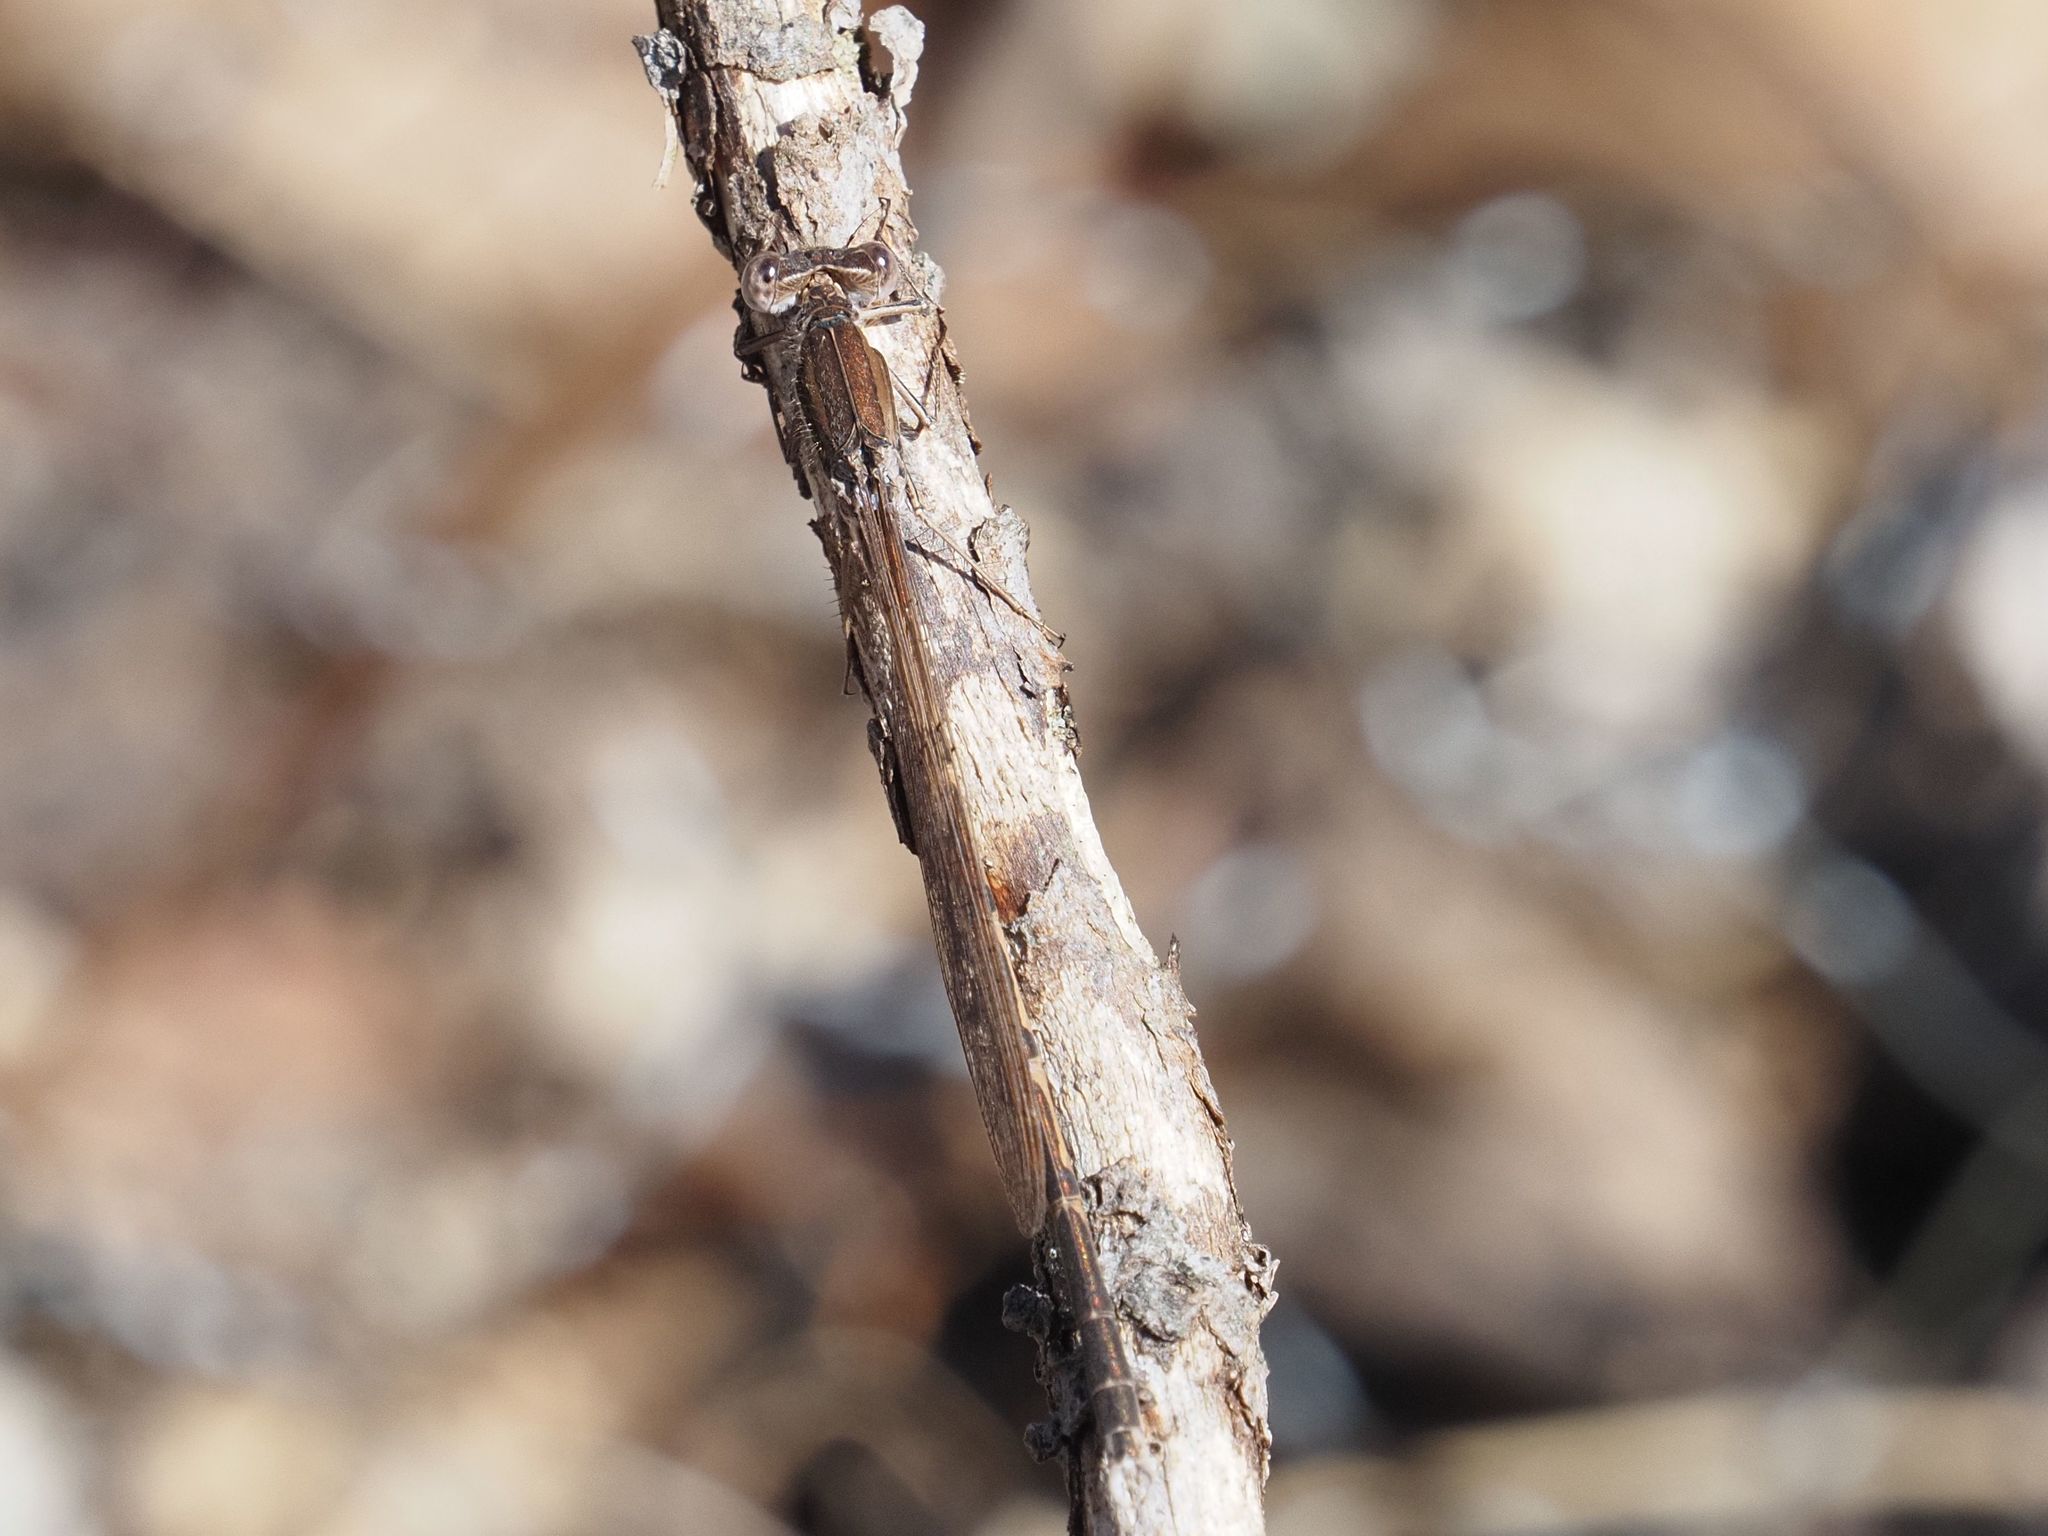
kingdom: Animalia
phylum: Arthropoda
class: Insecta
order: Odonata
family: Lestidae
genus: Sympecma
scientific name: Sympecma fusca
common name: Common winter damsel
